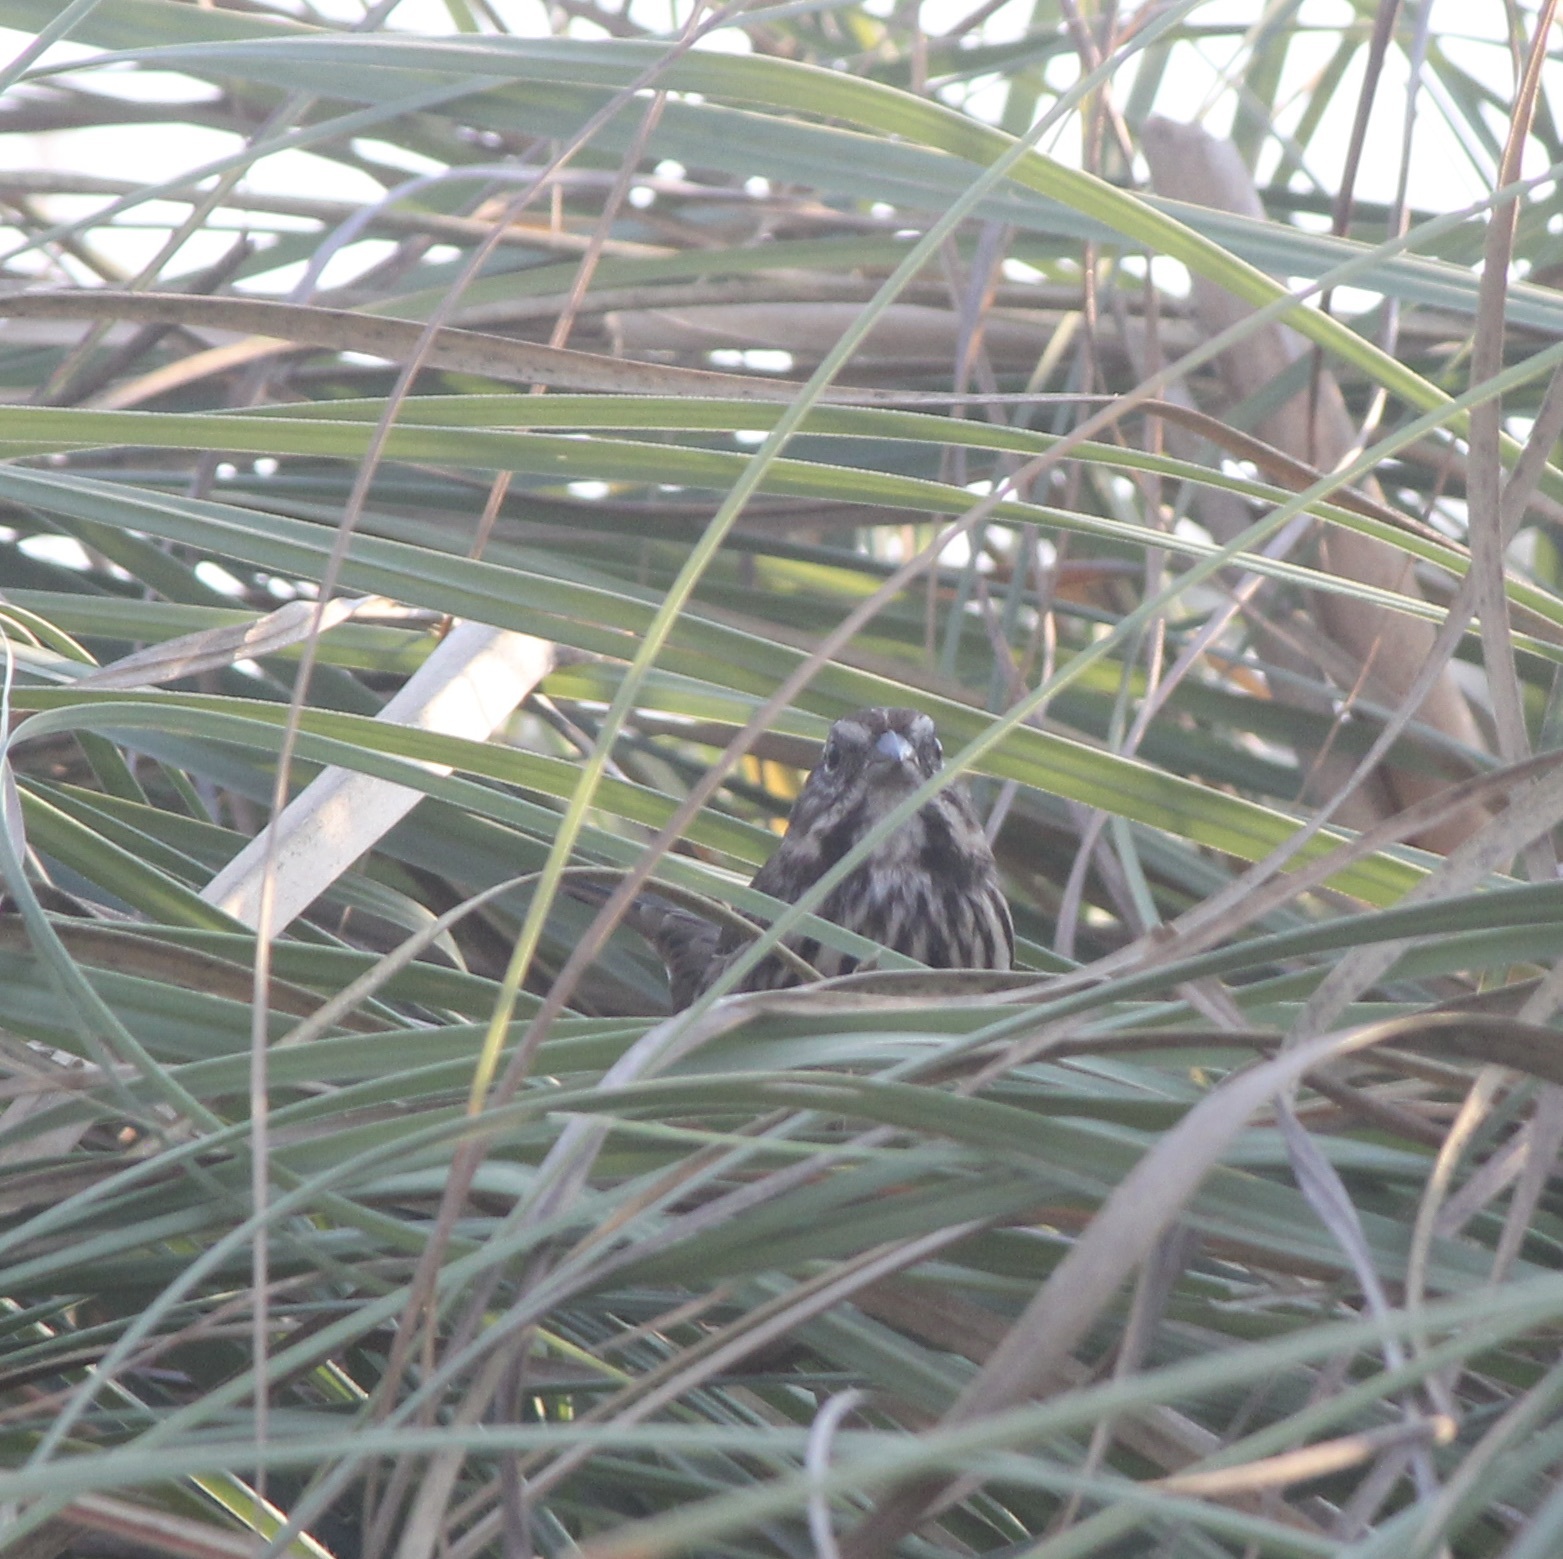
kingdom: Animalia
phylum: Chordata
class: Aves
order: Passeriformes
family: Passerellidae
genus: Melospiza
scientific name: Melospiza melodia
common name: Song sparrow
